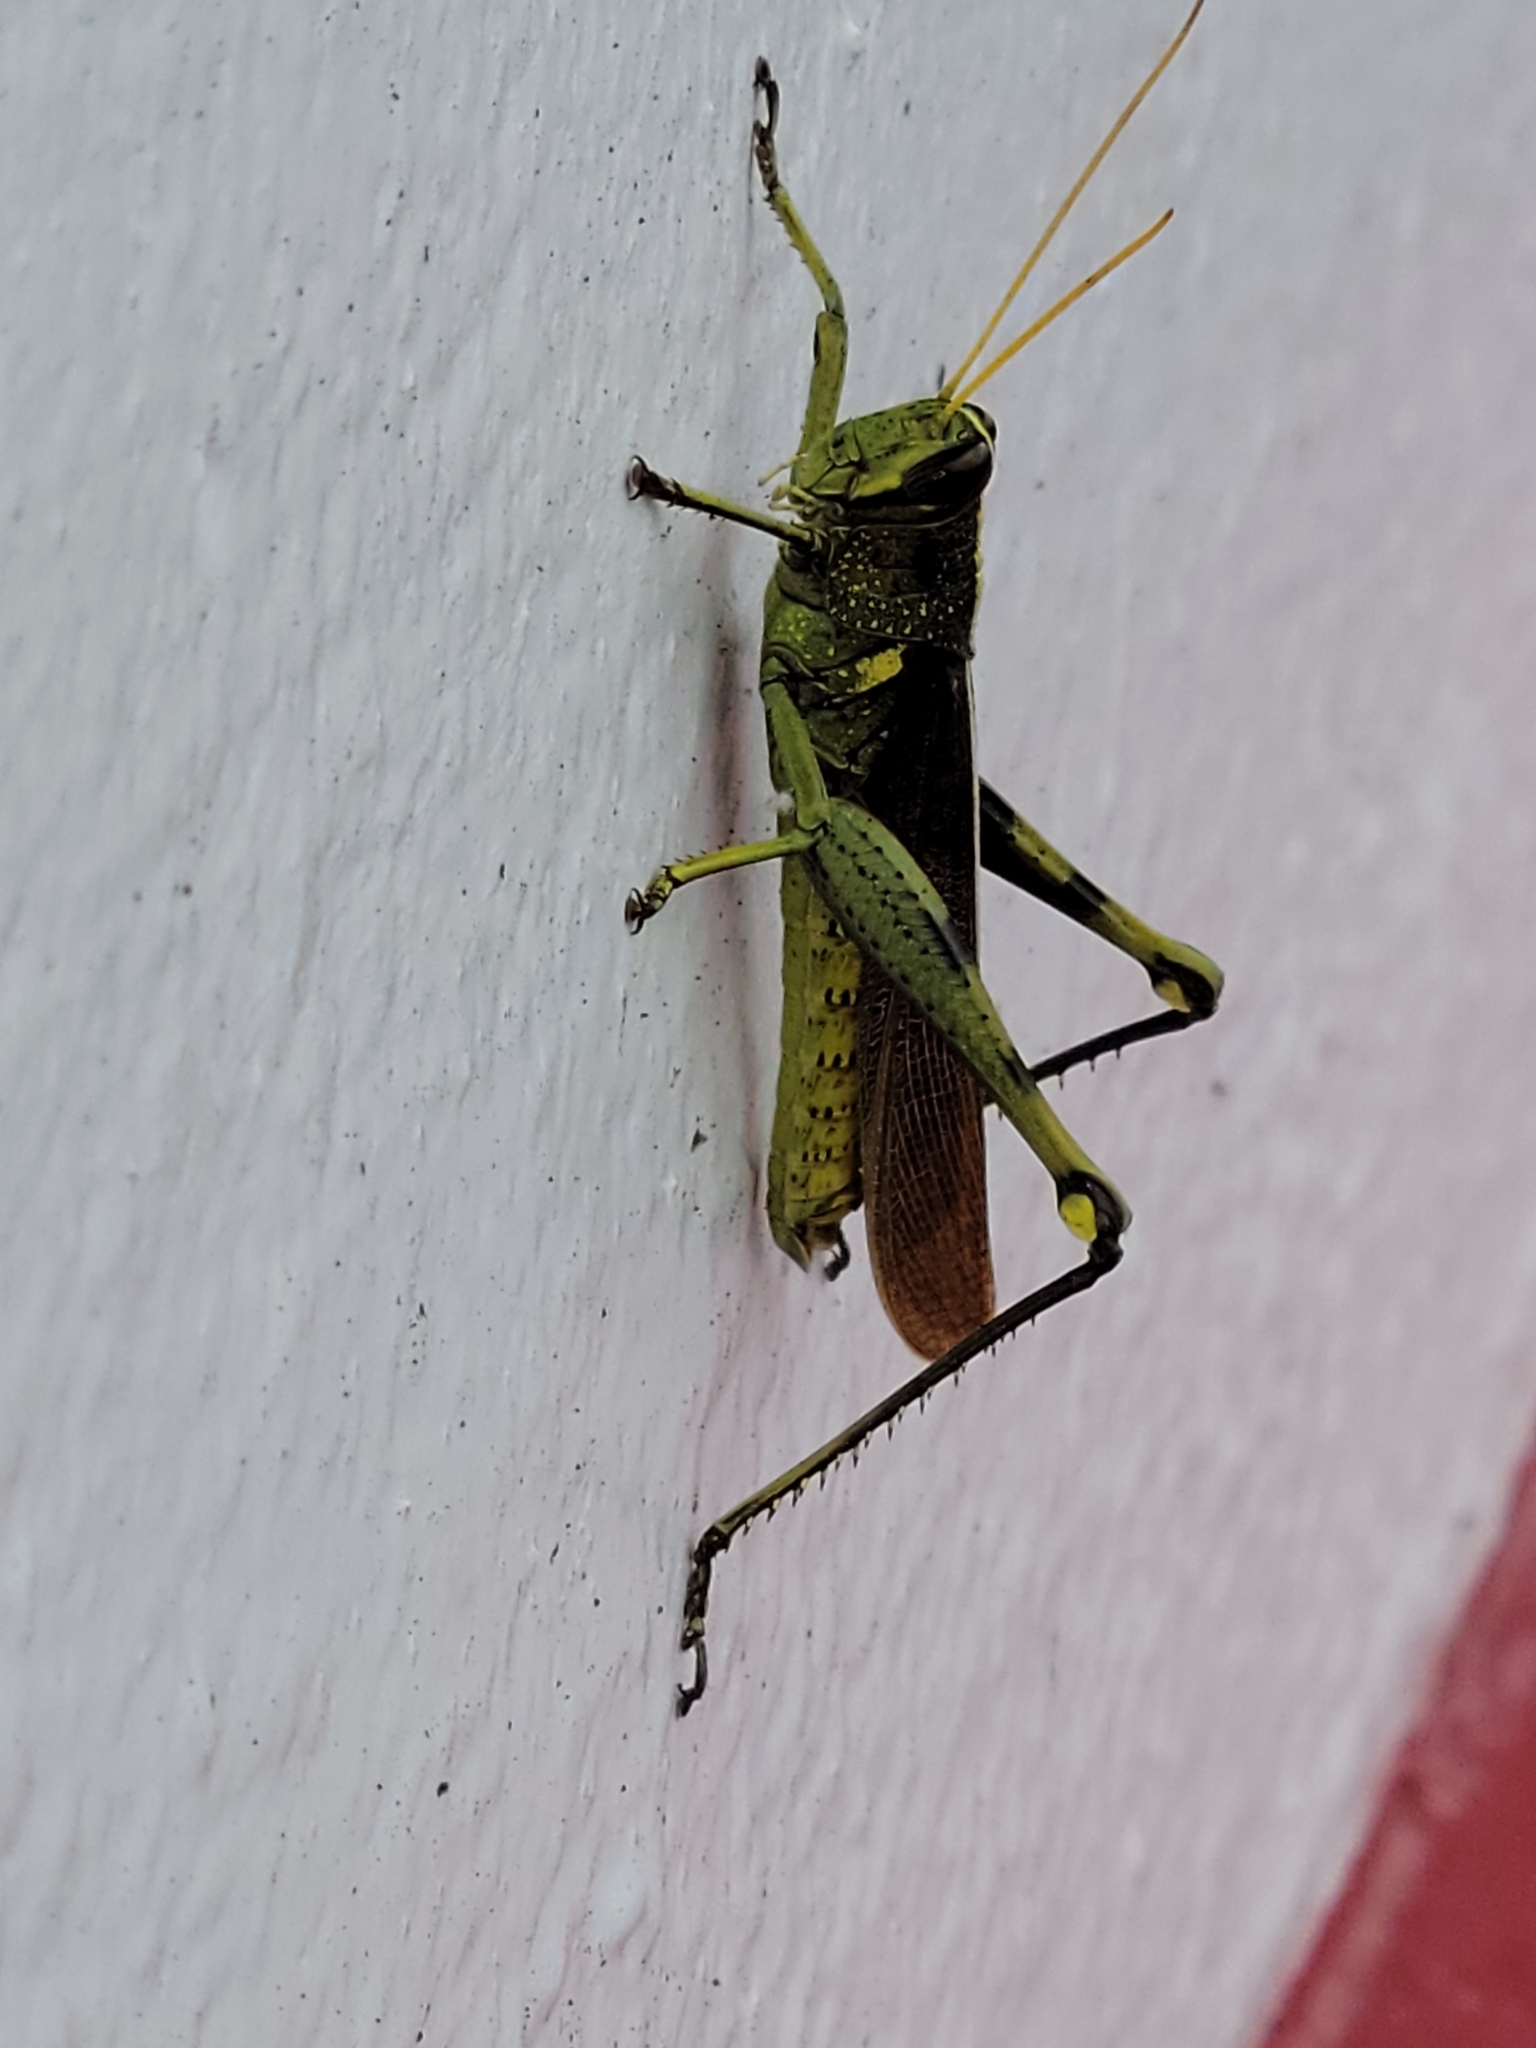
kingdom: Animalia
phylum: Arthropoda
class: Insecta
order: Orthoptera
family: Acrididae
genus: Schistocerca
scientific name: Schistocerca obscura
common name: Obscure bird grasshopper
